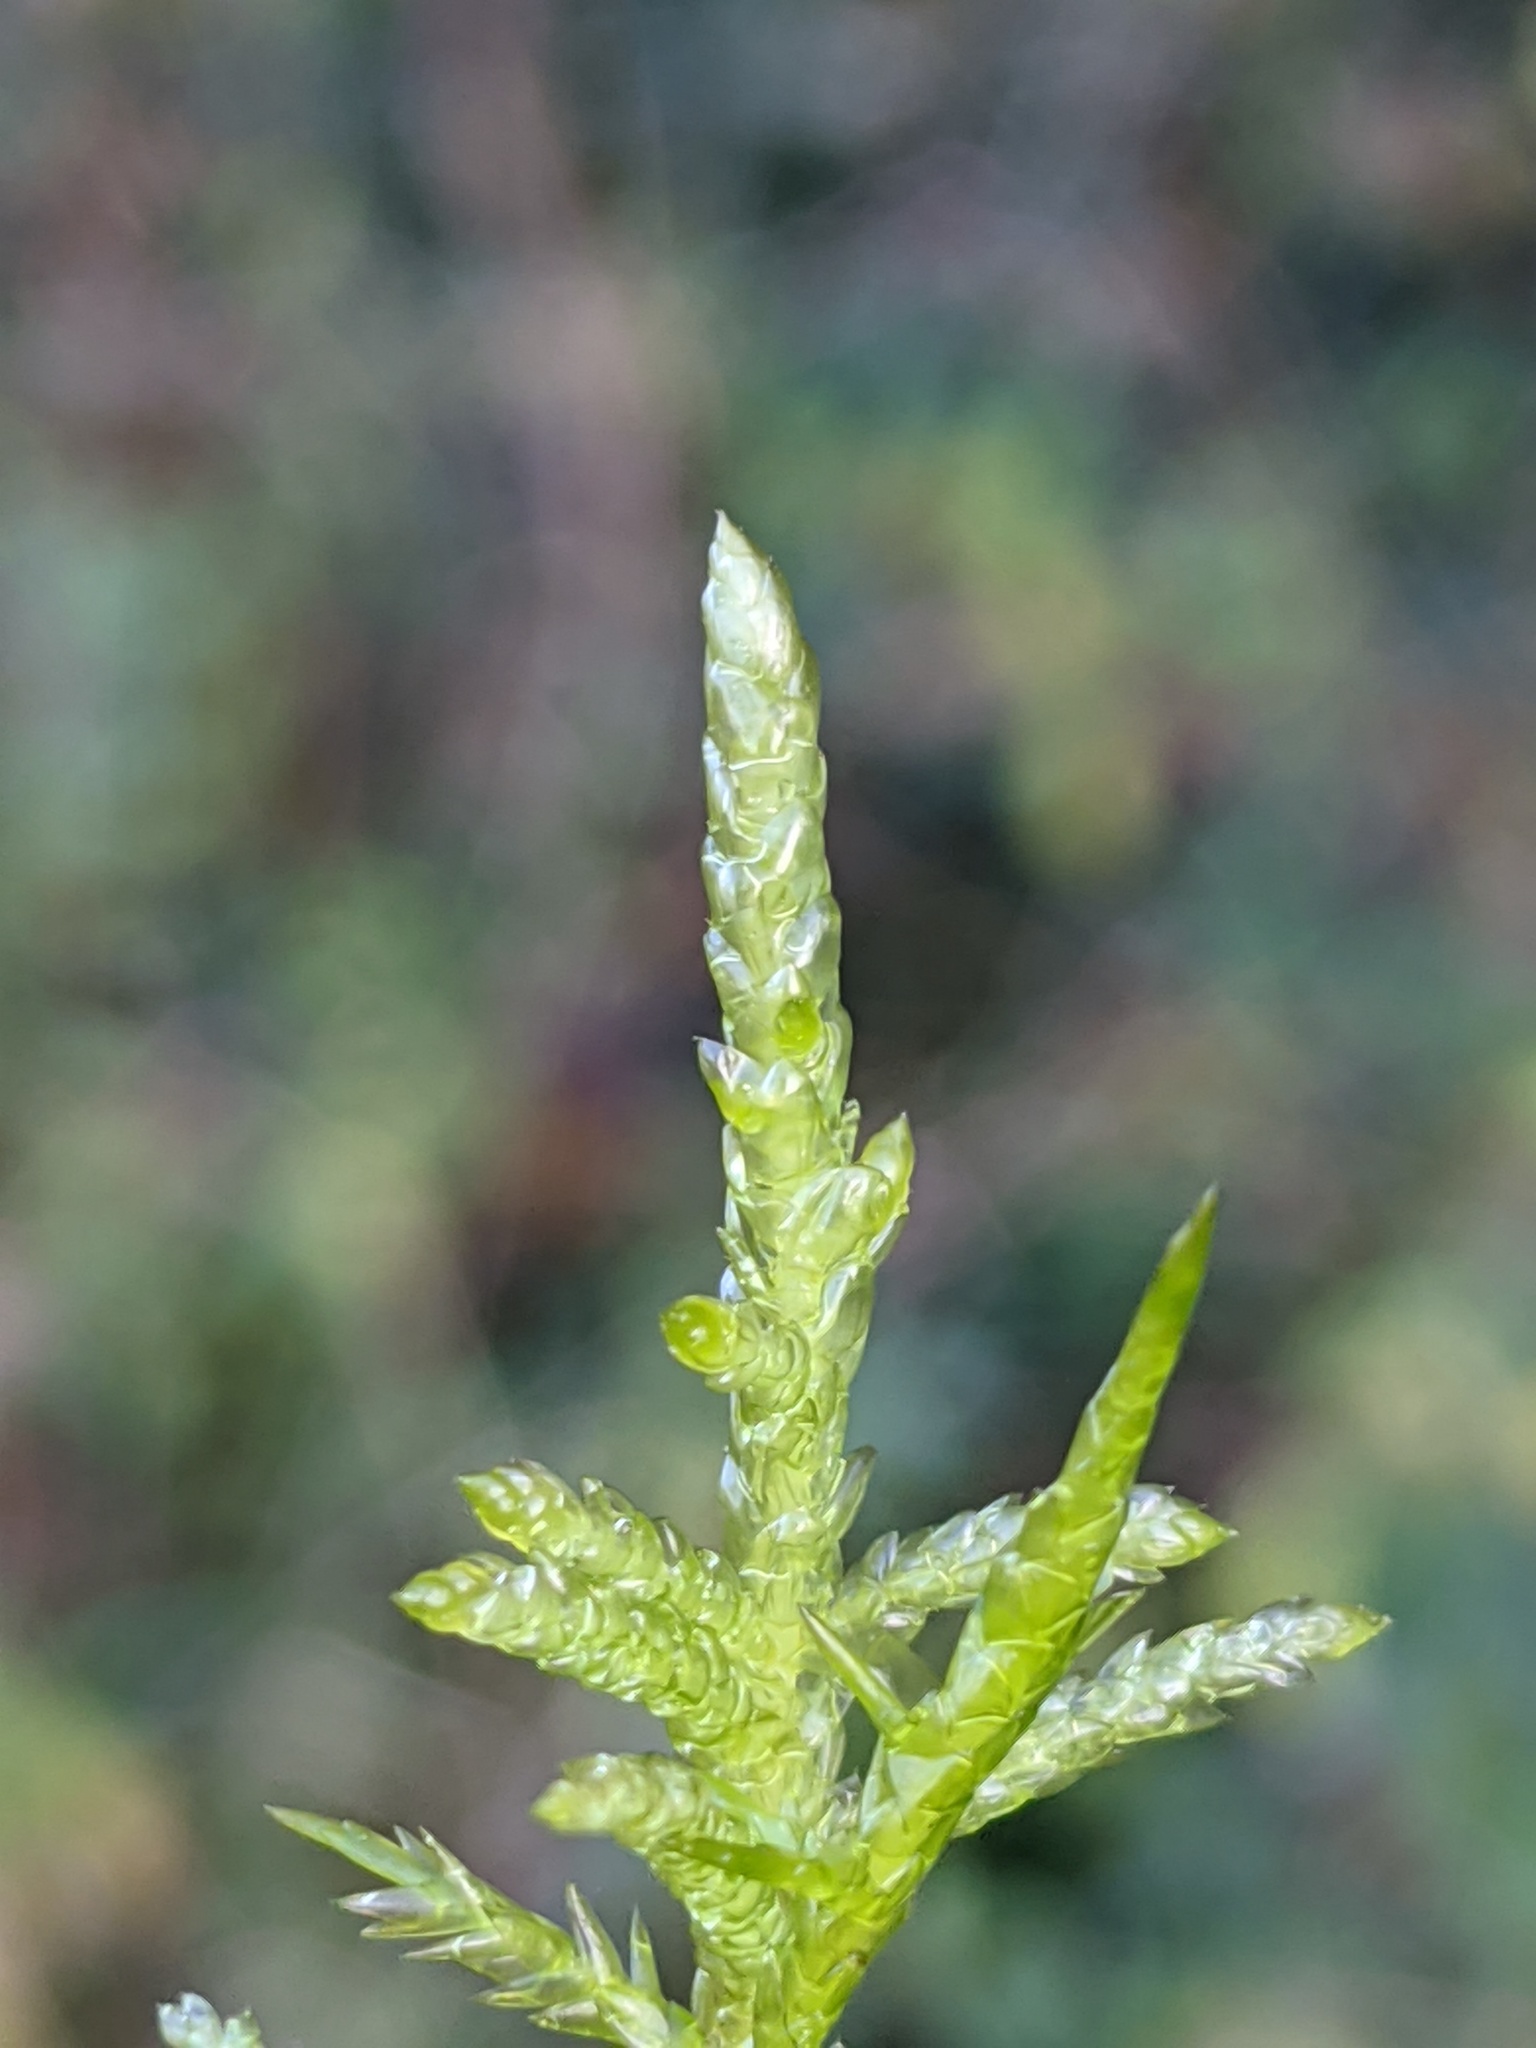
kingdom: Plantae
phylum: Bryophyta
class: Bryopsida
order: Hypnales
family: Brachytheciaceae
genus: Pseudoscleropodium
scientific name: Pseudoscleropodium purum
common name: Neat feather-moss
